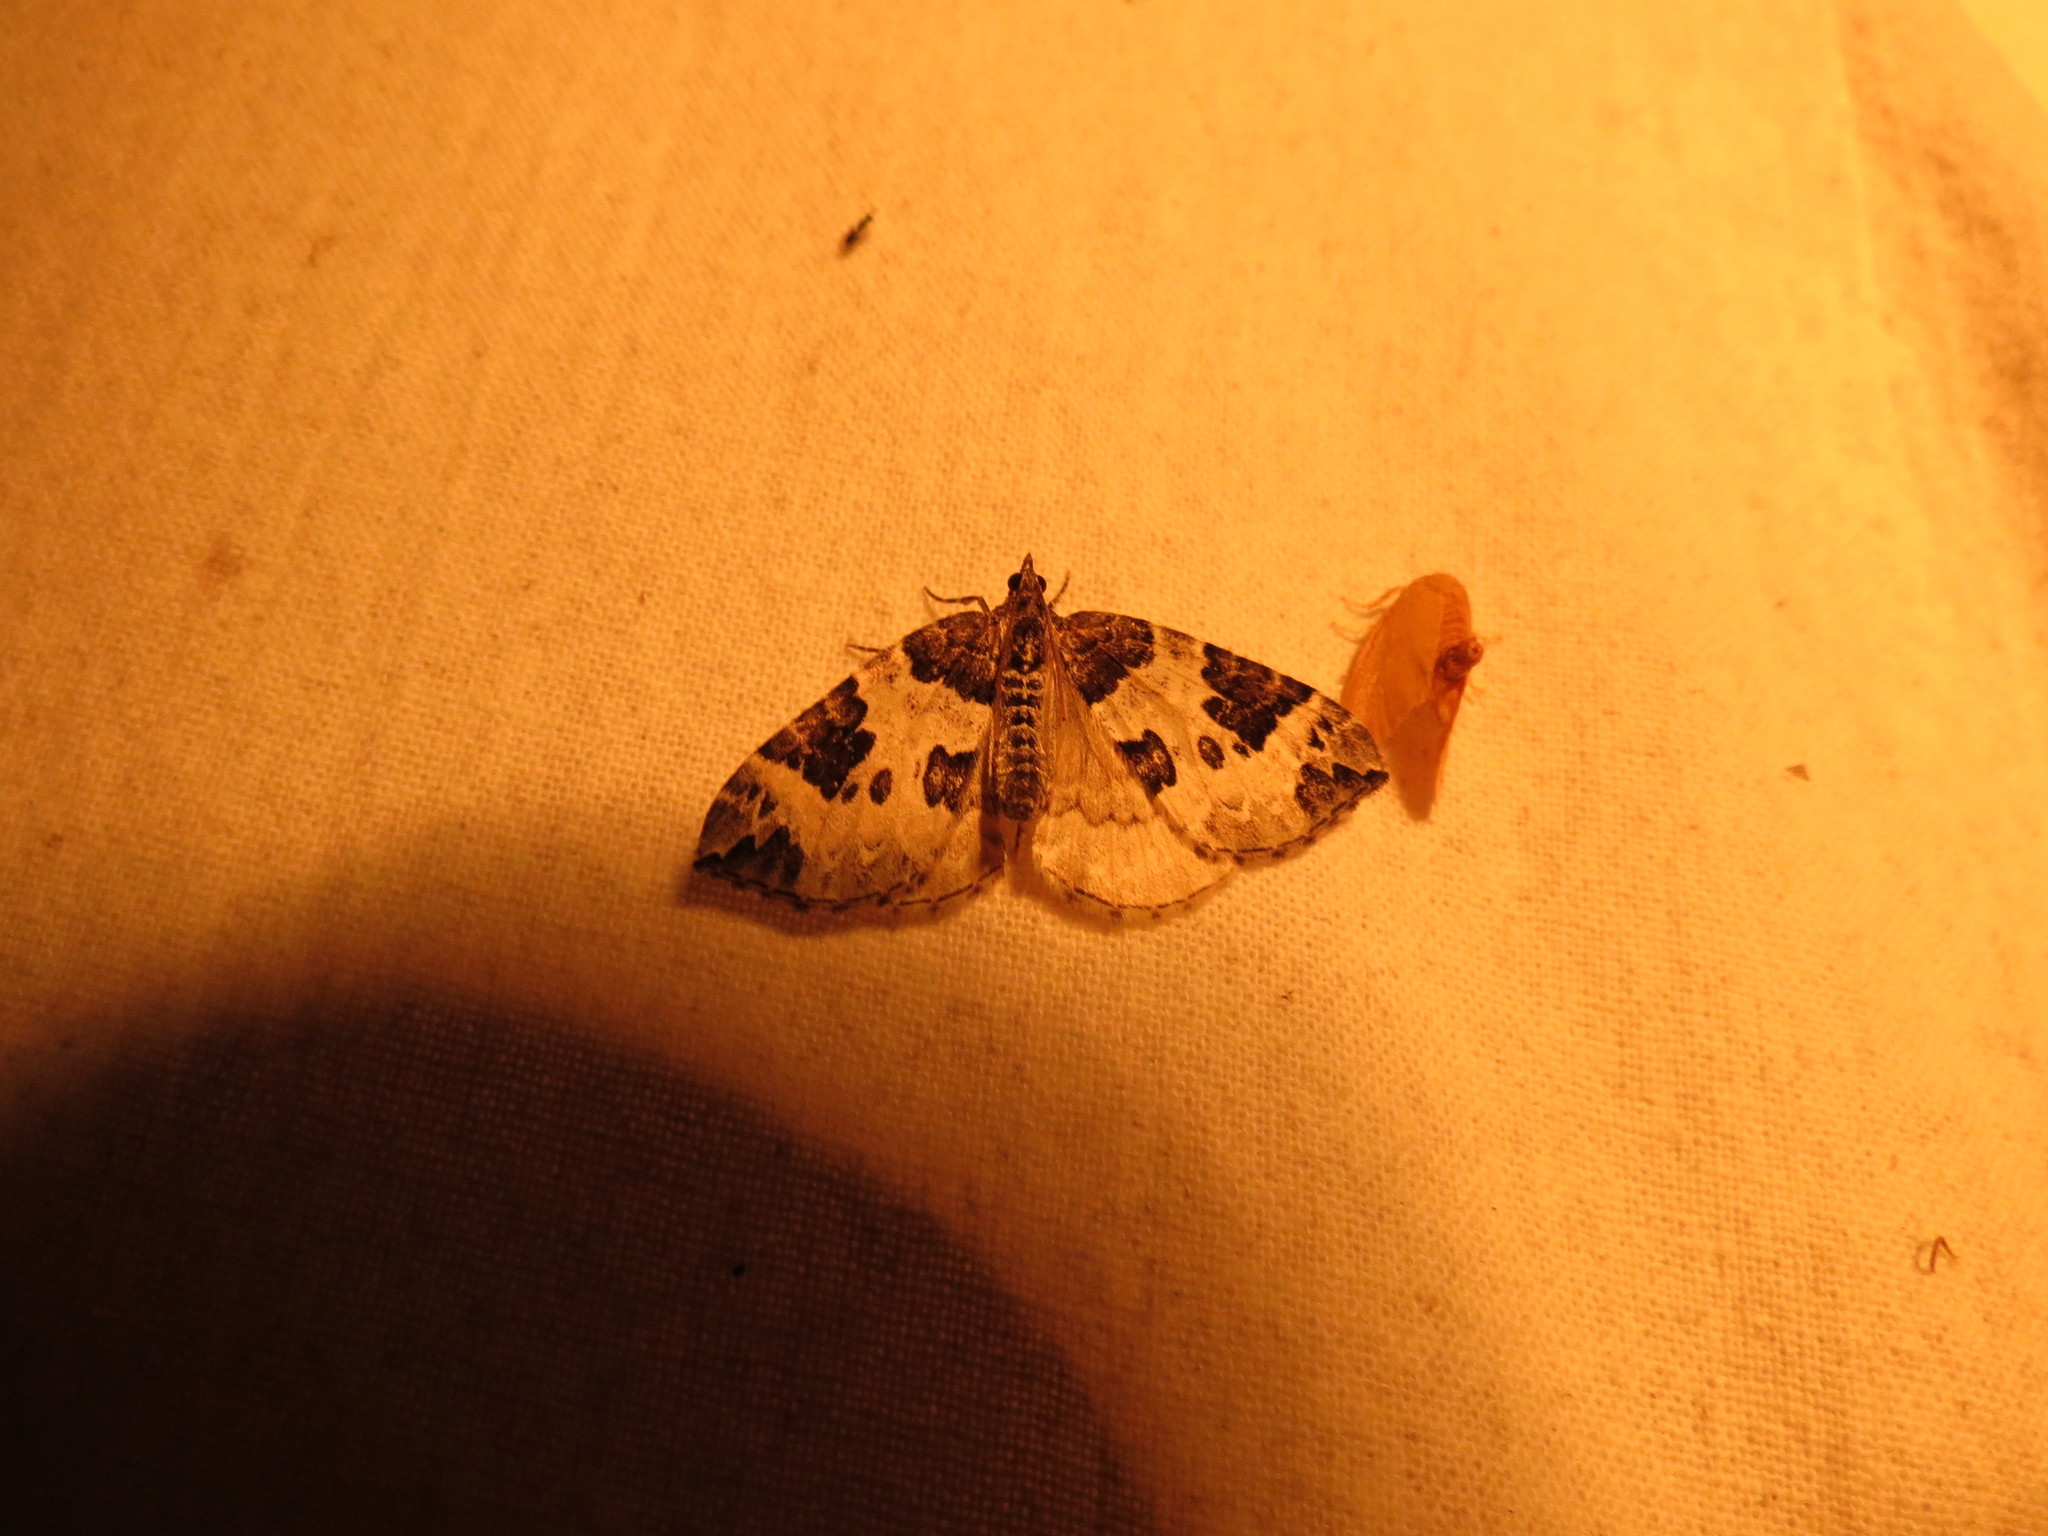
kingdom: Animalia
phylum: Arthropoda
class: Insecta
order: Lepidoptera
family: Geometridae
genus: Eulithis
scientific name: Eulithis explanata
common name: White eulithis
